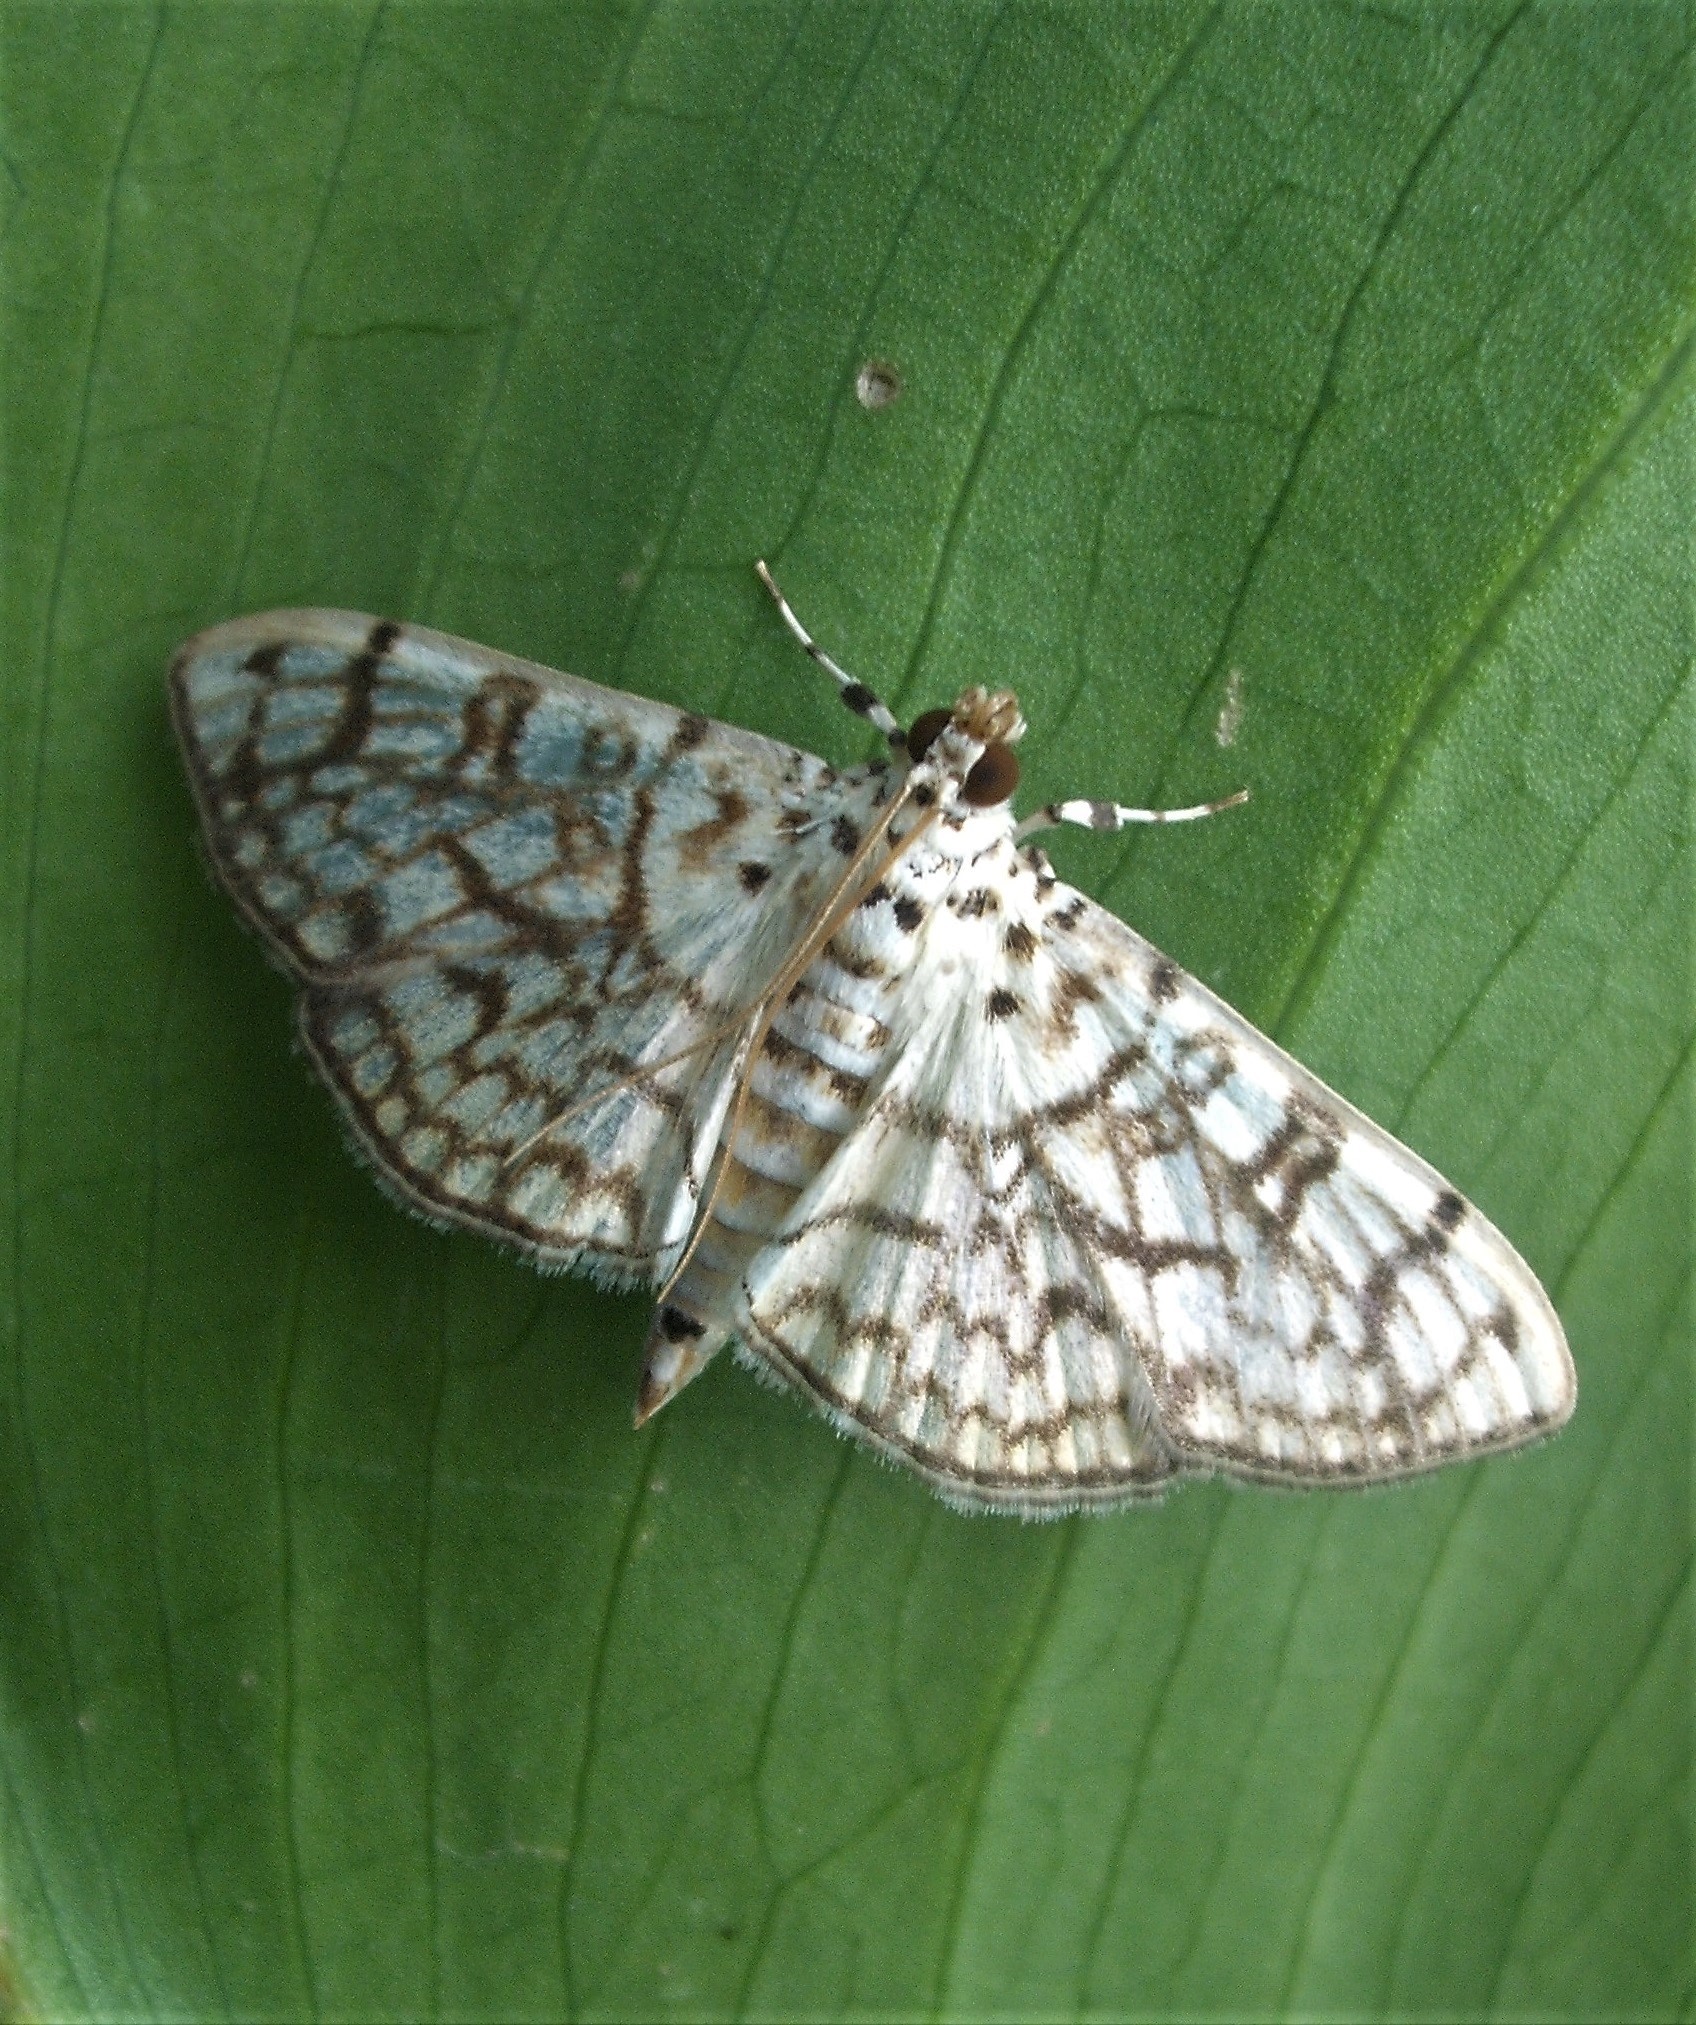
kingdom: Animalia
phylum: Arthropoda
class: Insecta
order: Lepidoptera
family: Crambidae
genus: Haritalodes
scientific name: Haritalodes derogata
